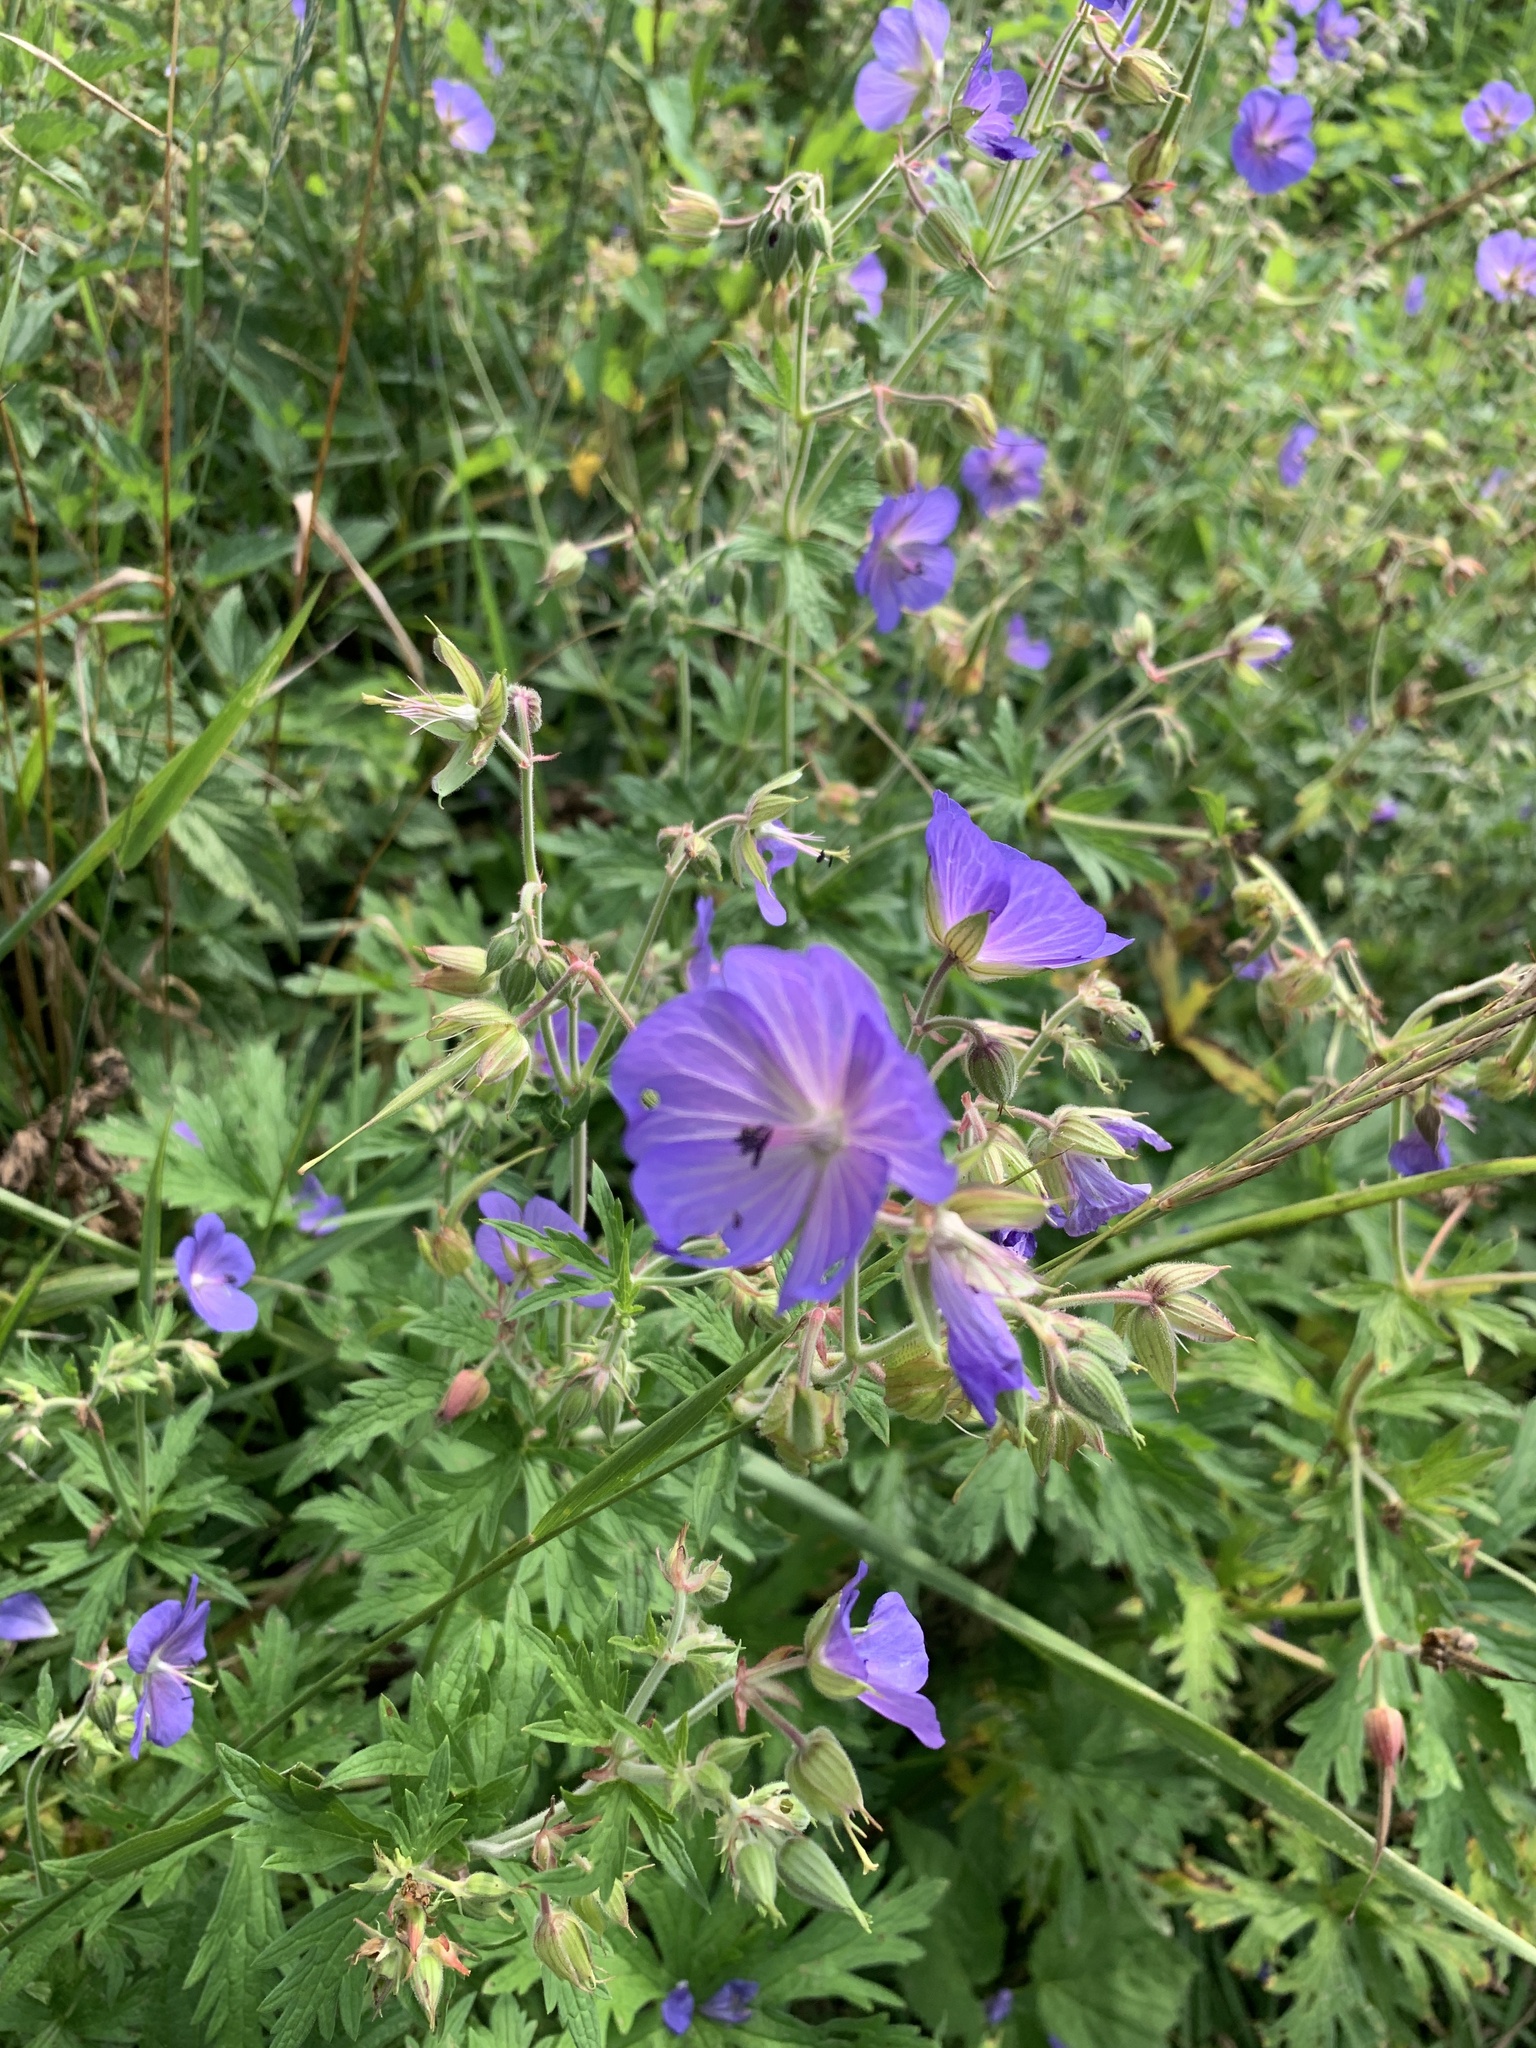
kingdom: Plantae
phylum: Tracheophyta
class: Magnoliopsida
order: Geraniales
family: Geraniaceae
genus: Geranium
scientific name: Geranium pratense
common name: Meadow crane's-bill
